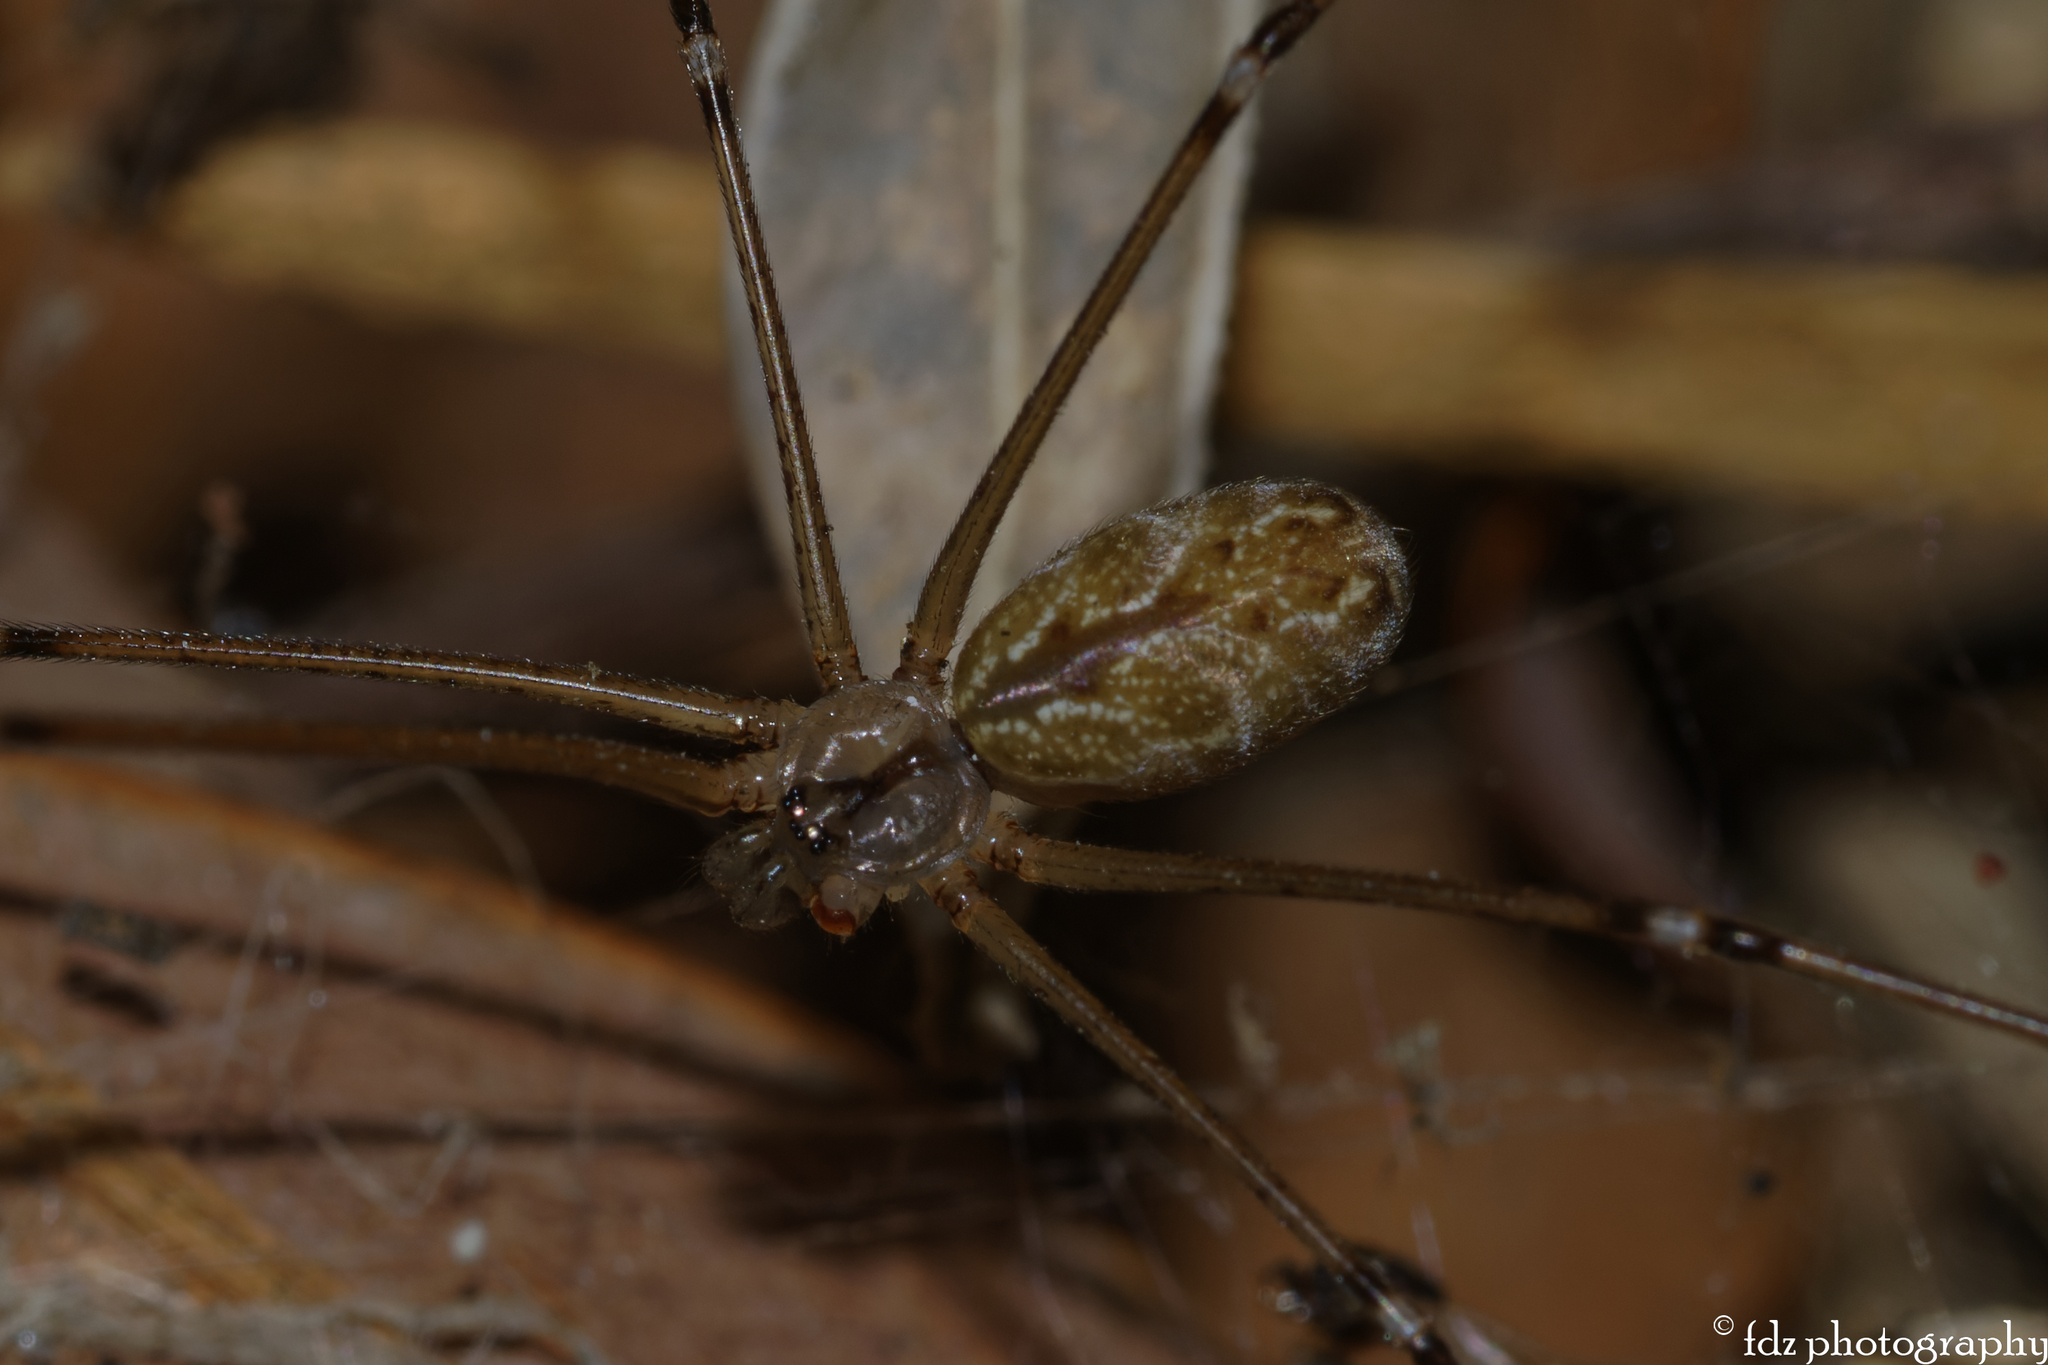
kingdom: Animalia
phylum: Arthropoda
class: Arachnida
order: Araneae
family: Pholcidae
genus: Holocnemus
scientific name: Holocnemus pluchei
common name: Marbled cellar spider
